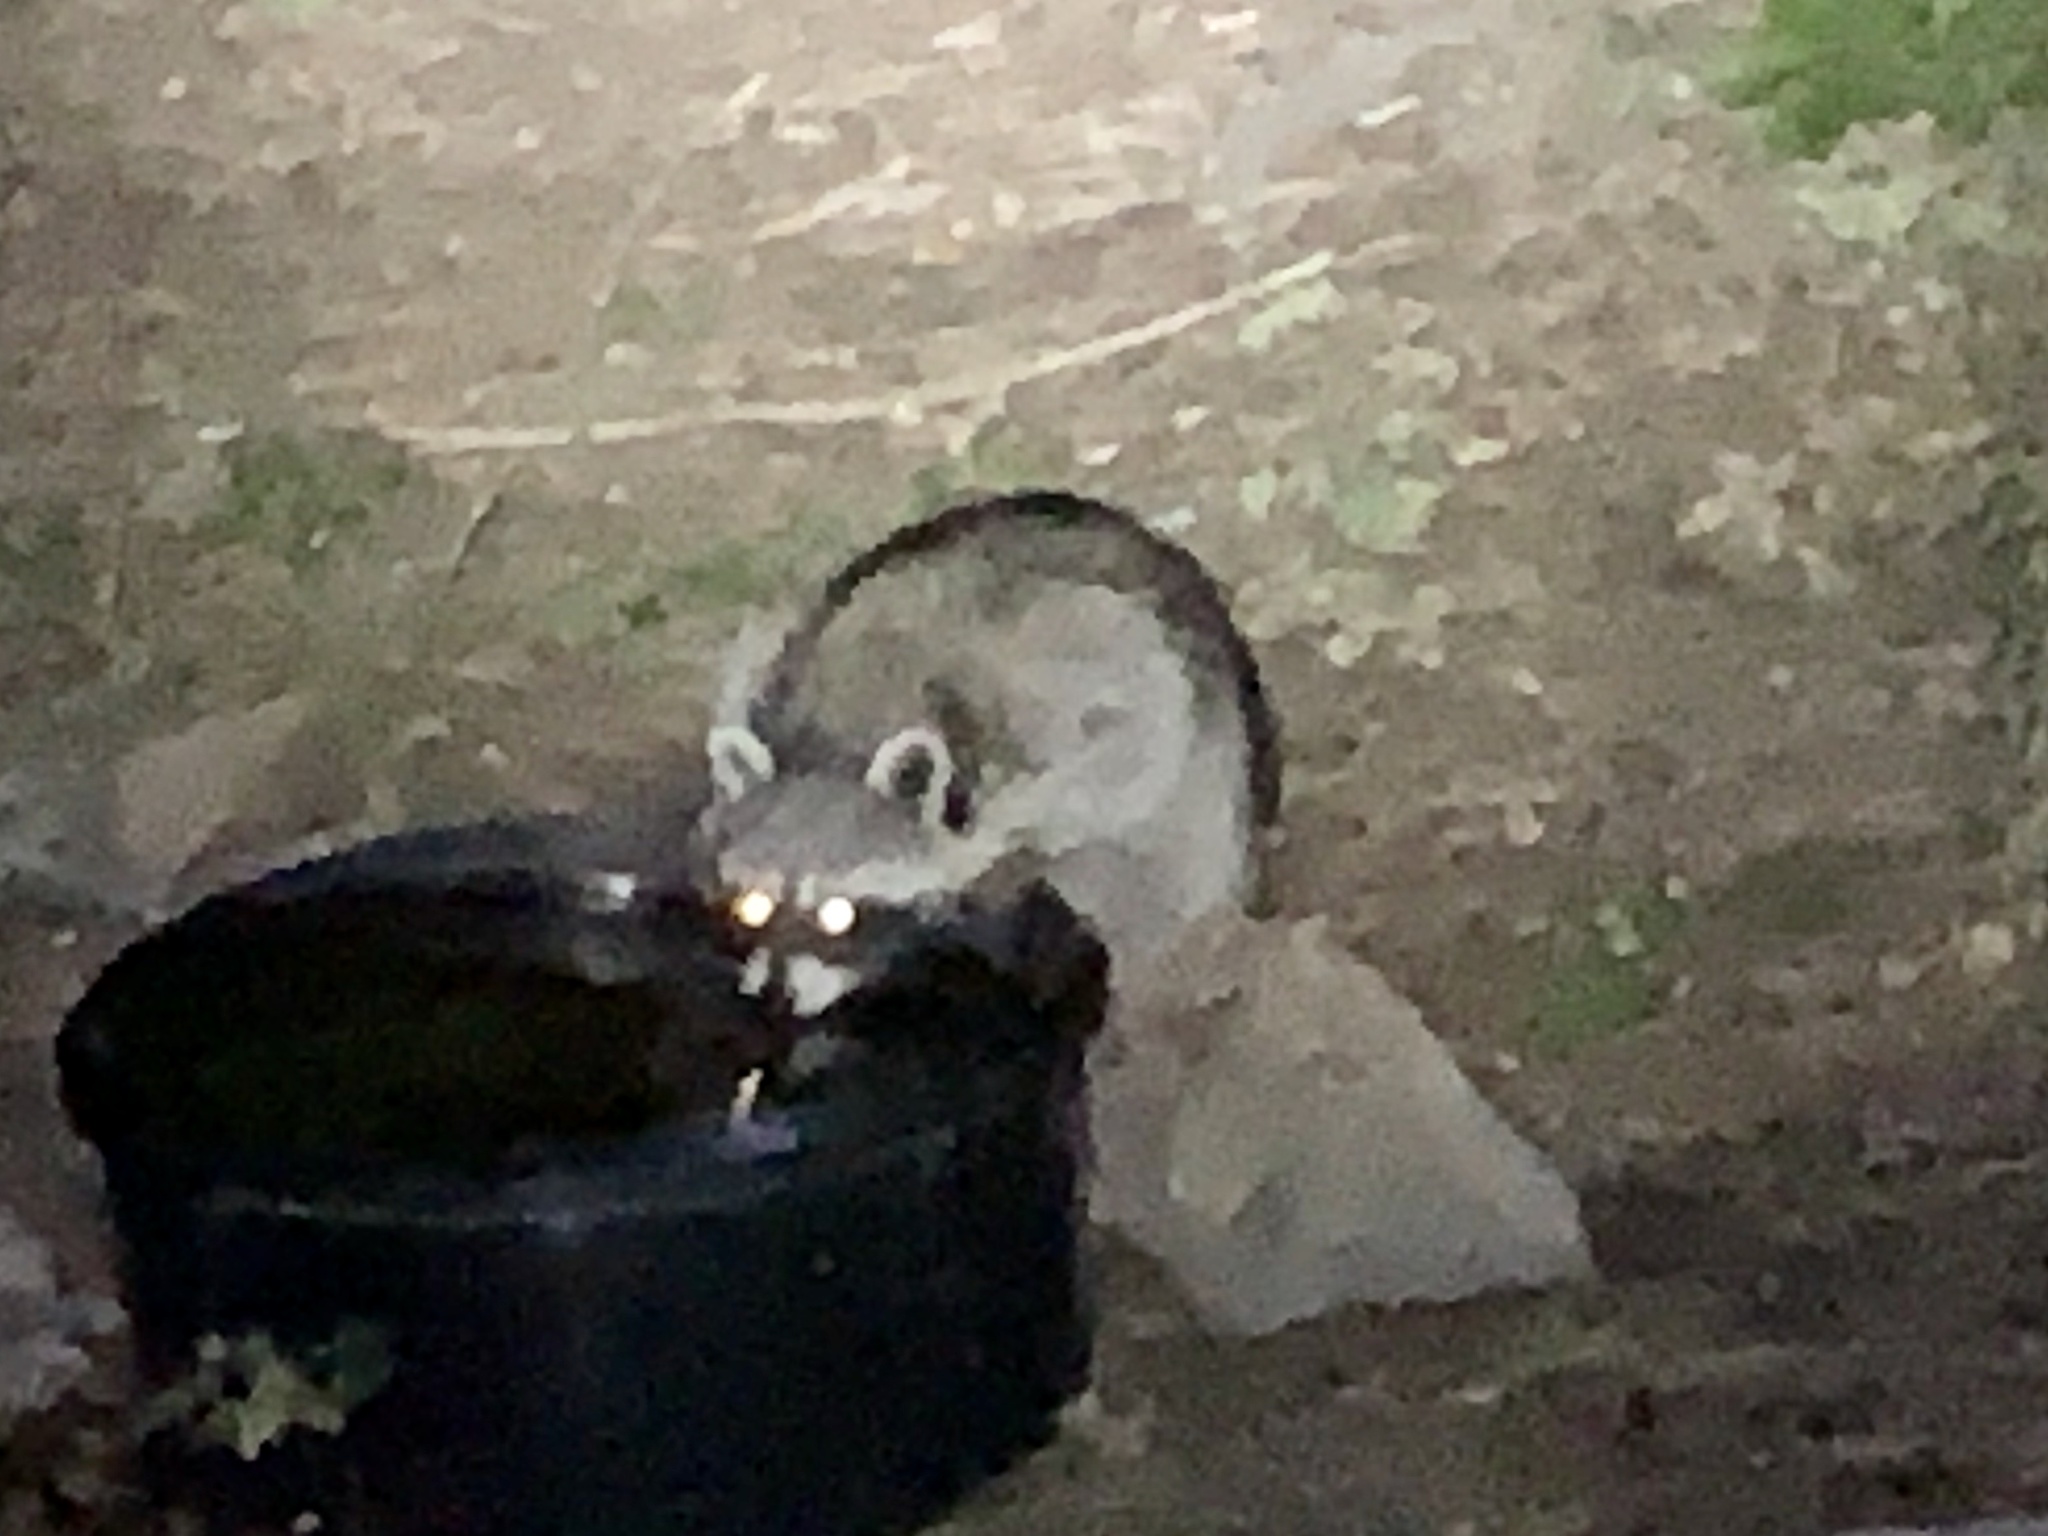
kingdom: Animalia
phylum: Chordata
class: Mammalia
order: Carnivora
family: Procyonidae
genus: Procyon
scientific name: Procyon lotor
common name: Raccoon
